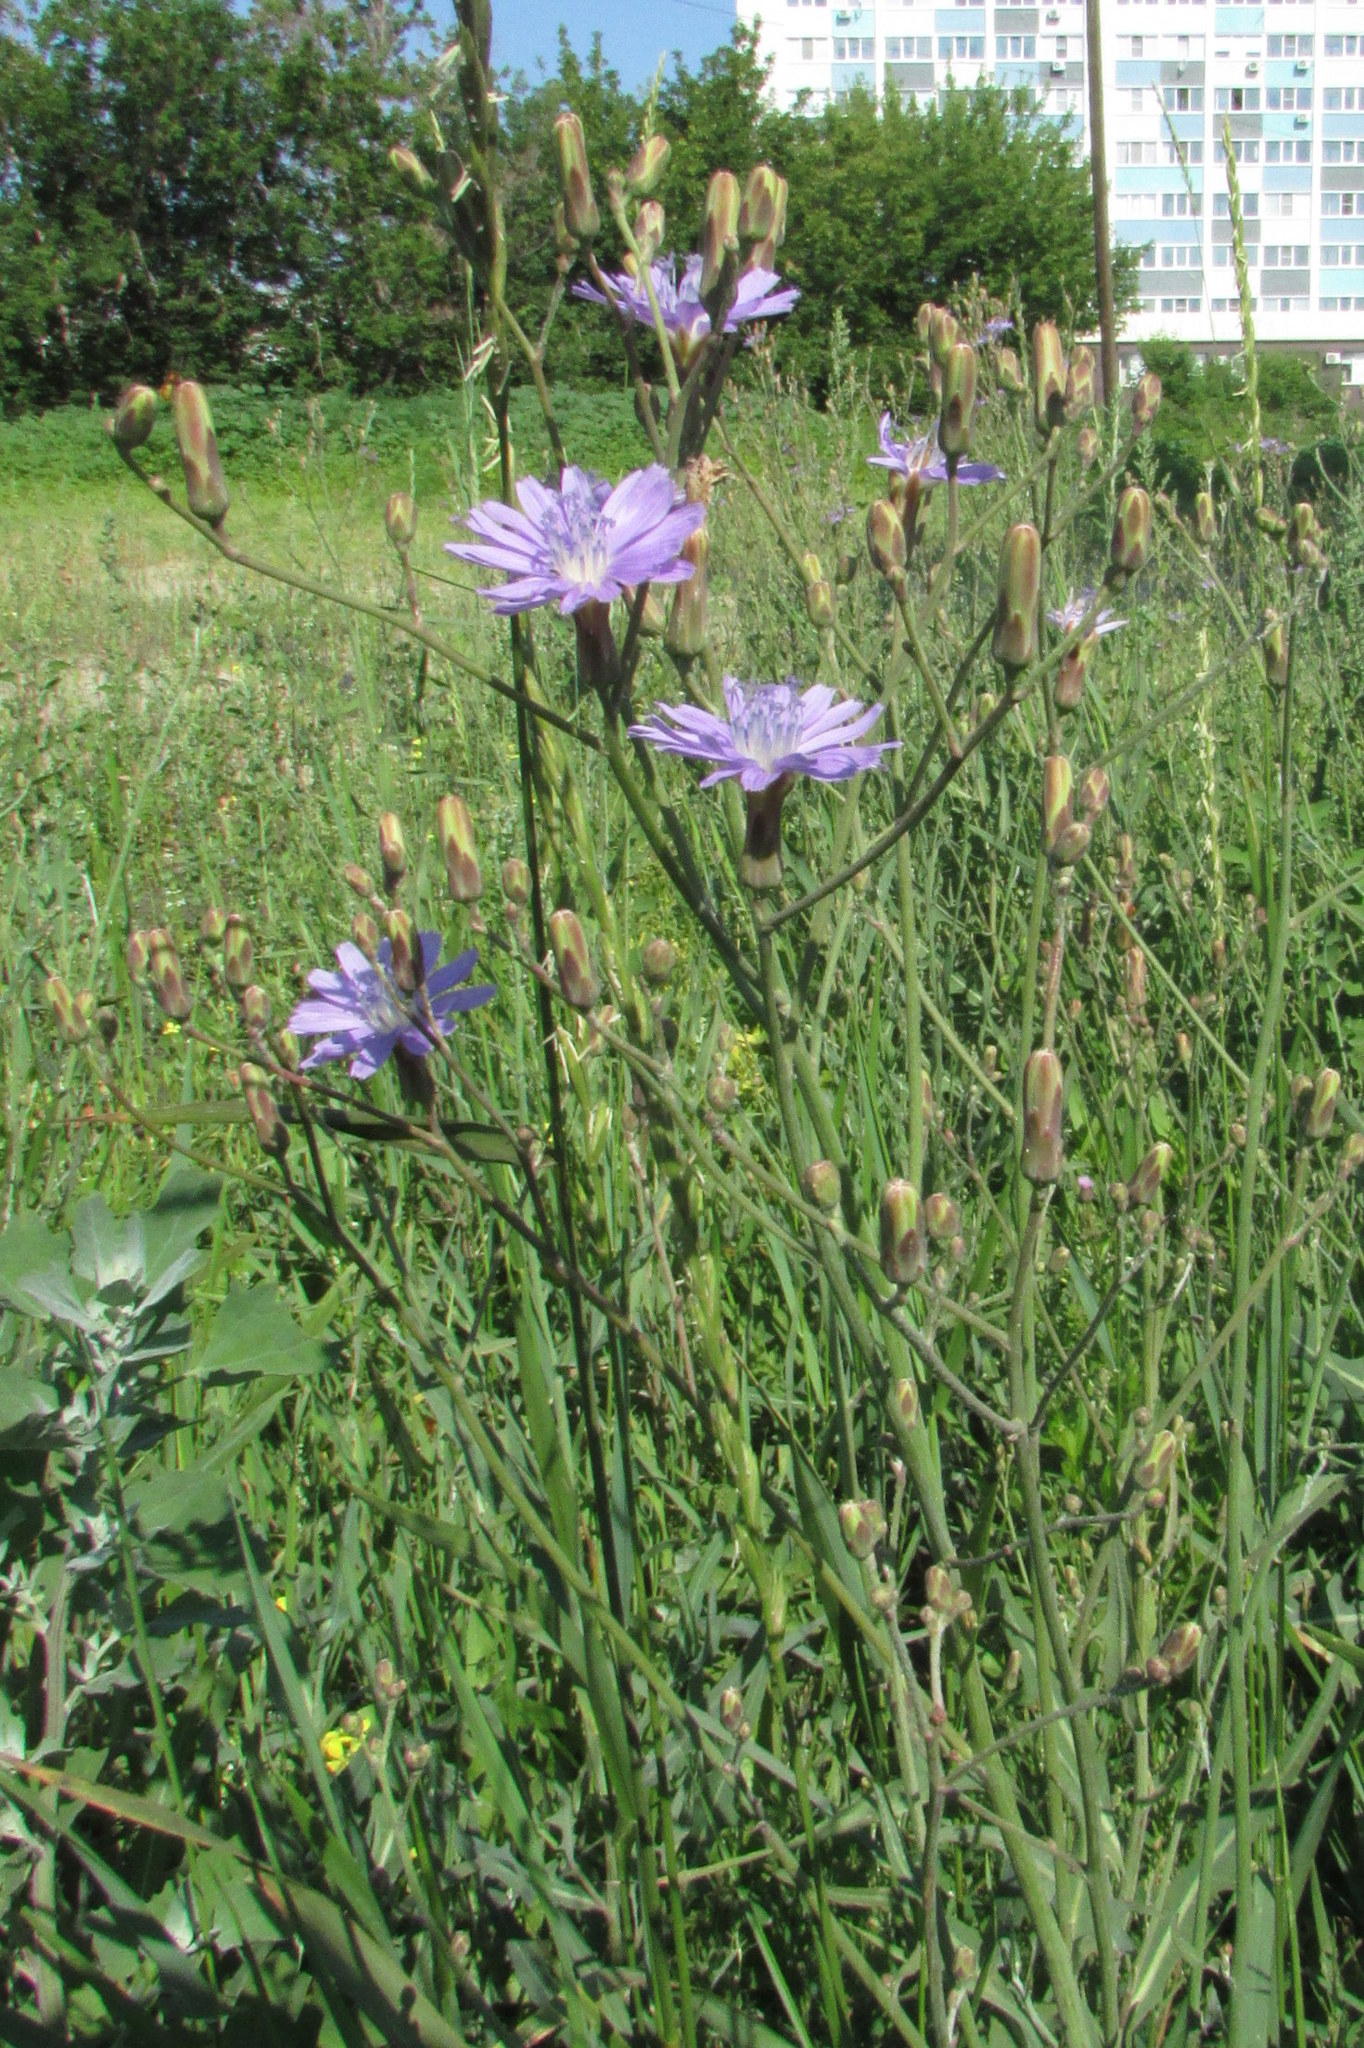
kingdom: Plantae
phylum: Tracheophyta
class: Magnoliopsida
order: Asterales
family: Asteraceae
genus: Lactuca
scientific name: Lactuca tatarica
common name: Blue lettuce
